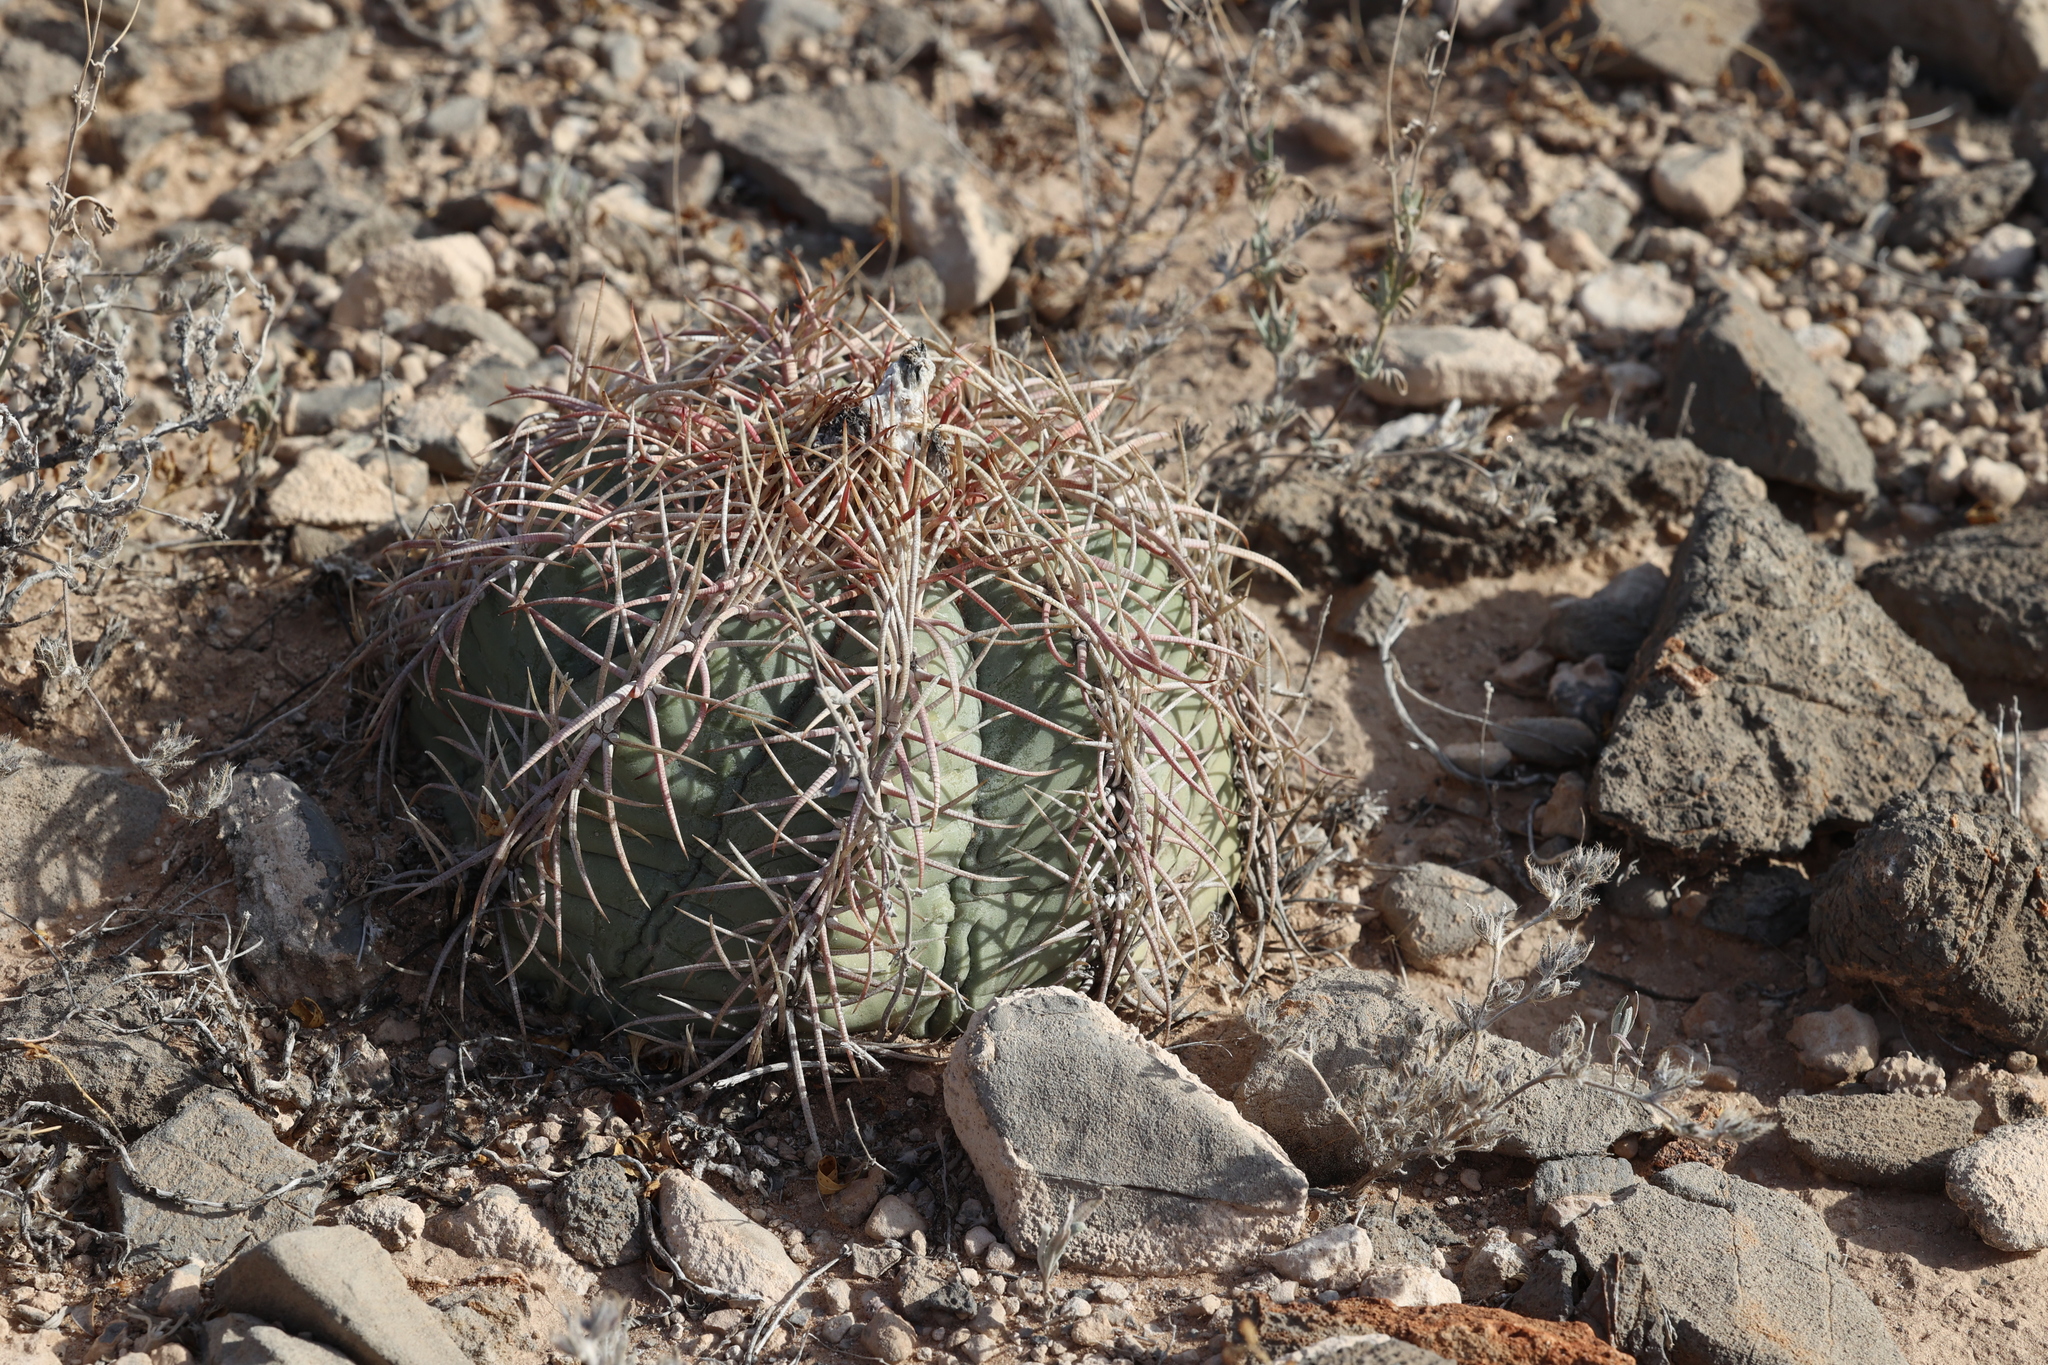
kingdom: Plantae
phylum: Tracheophyta
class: Magnoliopsida
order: Caryophyllales
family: Cactaceae
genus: Echinocactus
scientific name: Echinocactus horizonthalonius
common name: Devilshead
